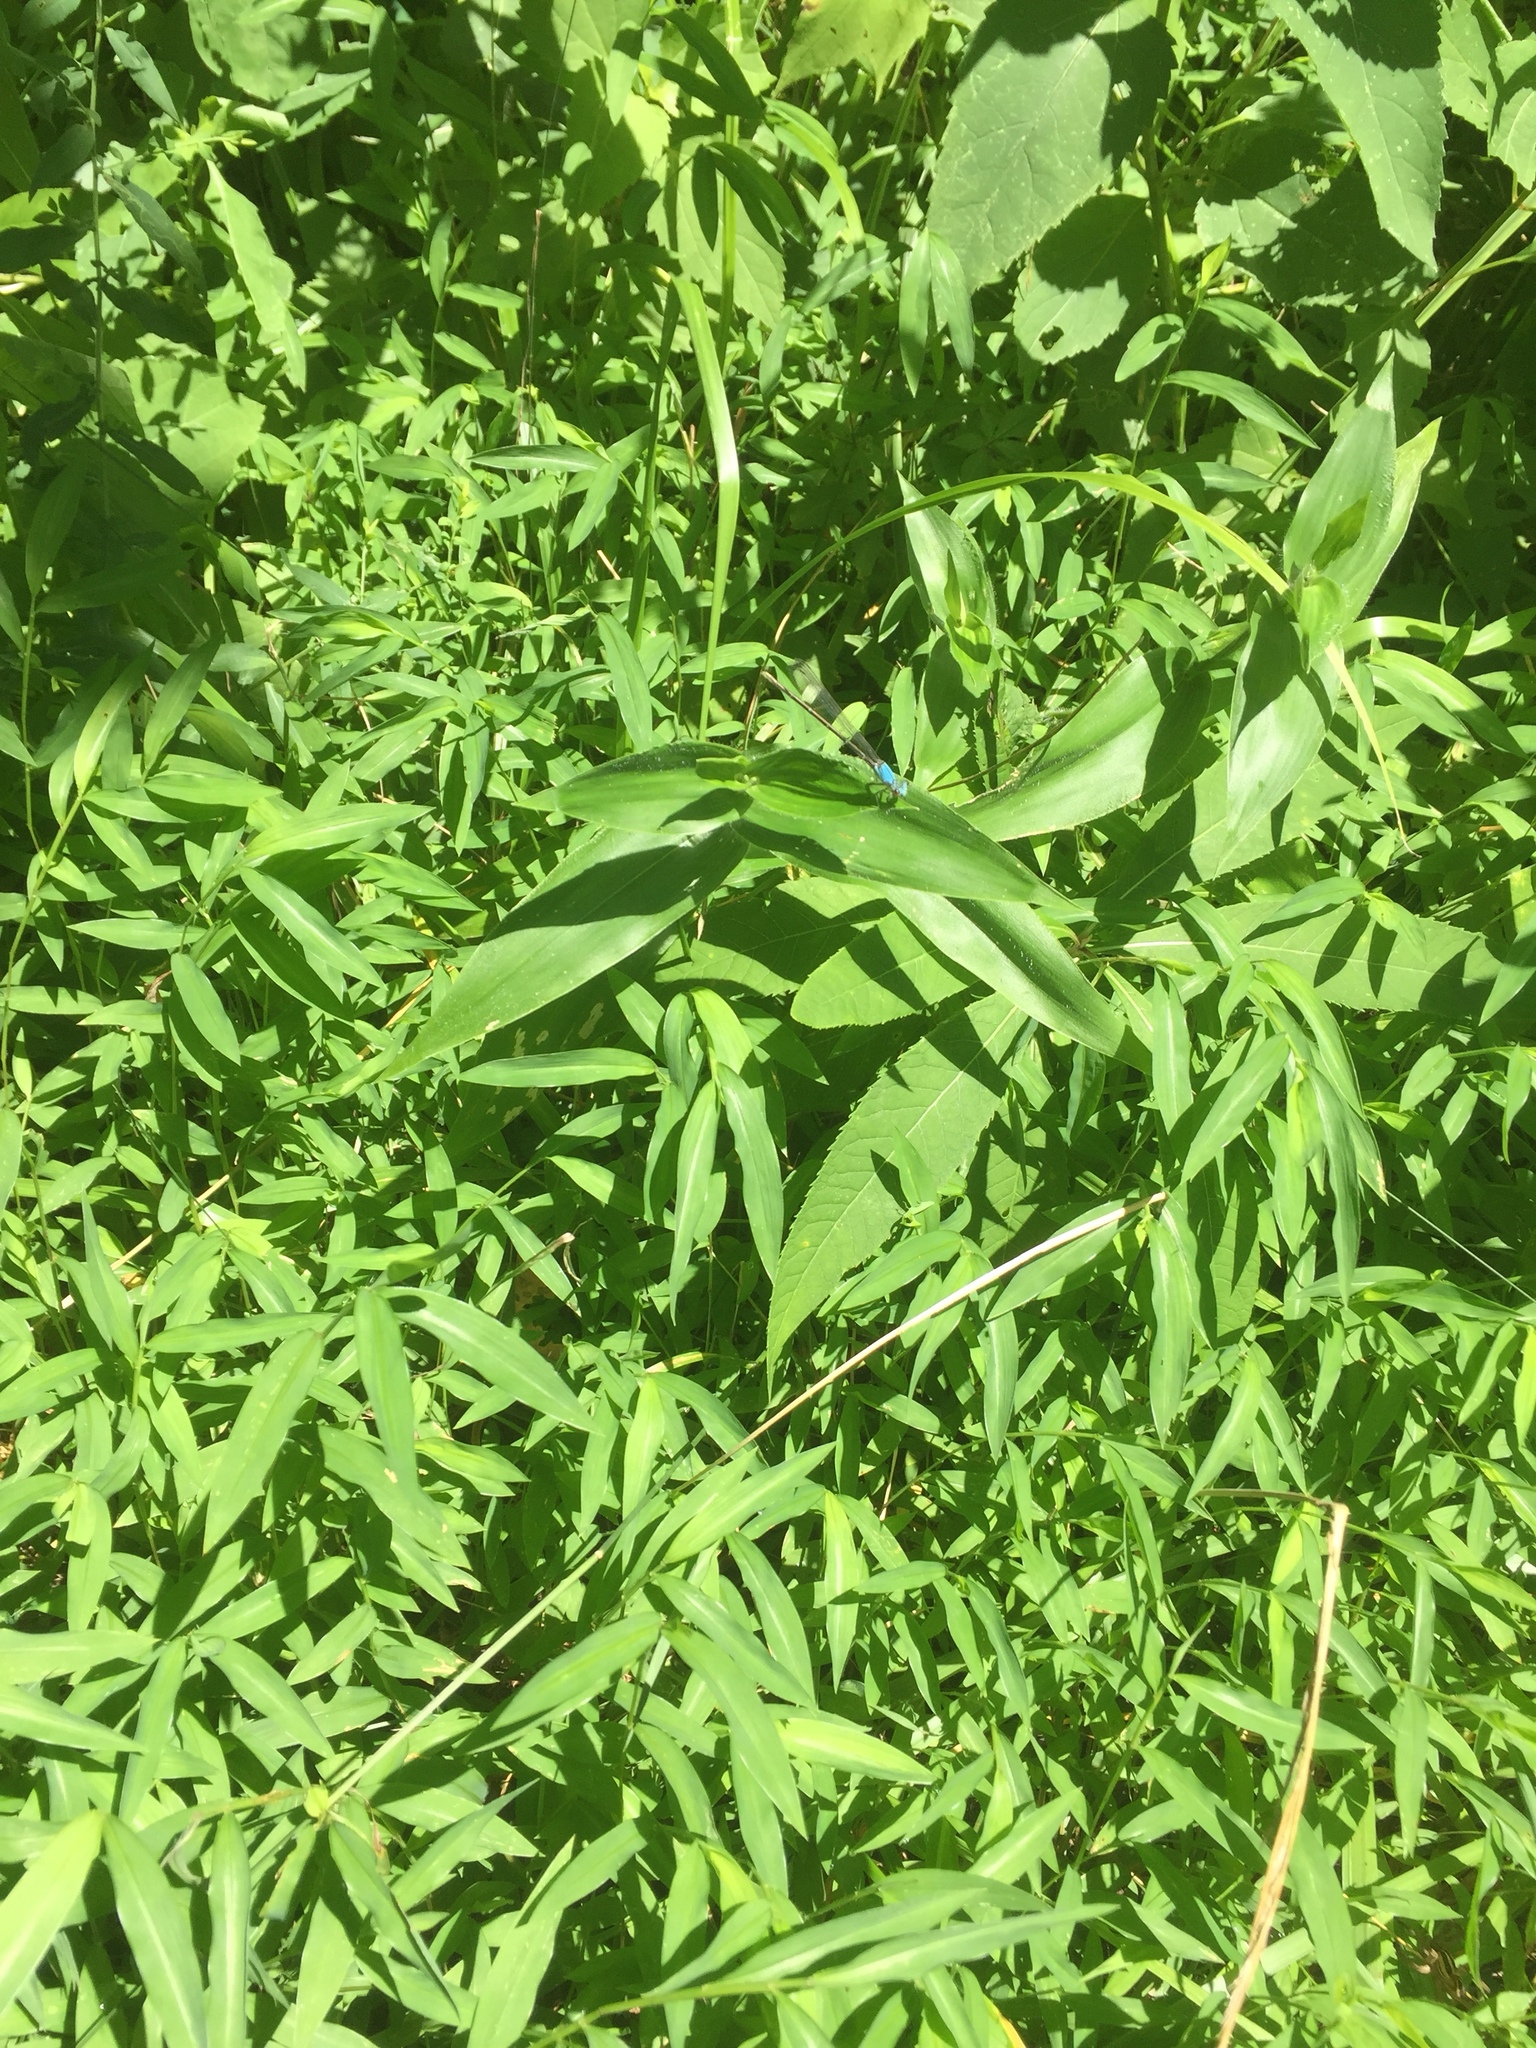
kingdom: Plantae
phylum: Tracheophyta
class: Liliopsida
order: Poales
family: Poaceae
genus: Microstegium
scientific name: Microstegium vimineum
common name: Japanese stiltgrass
